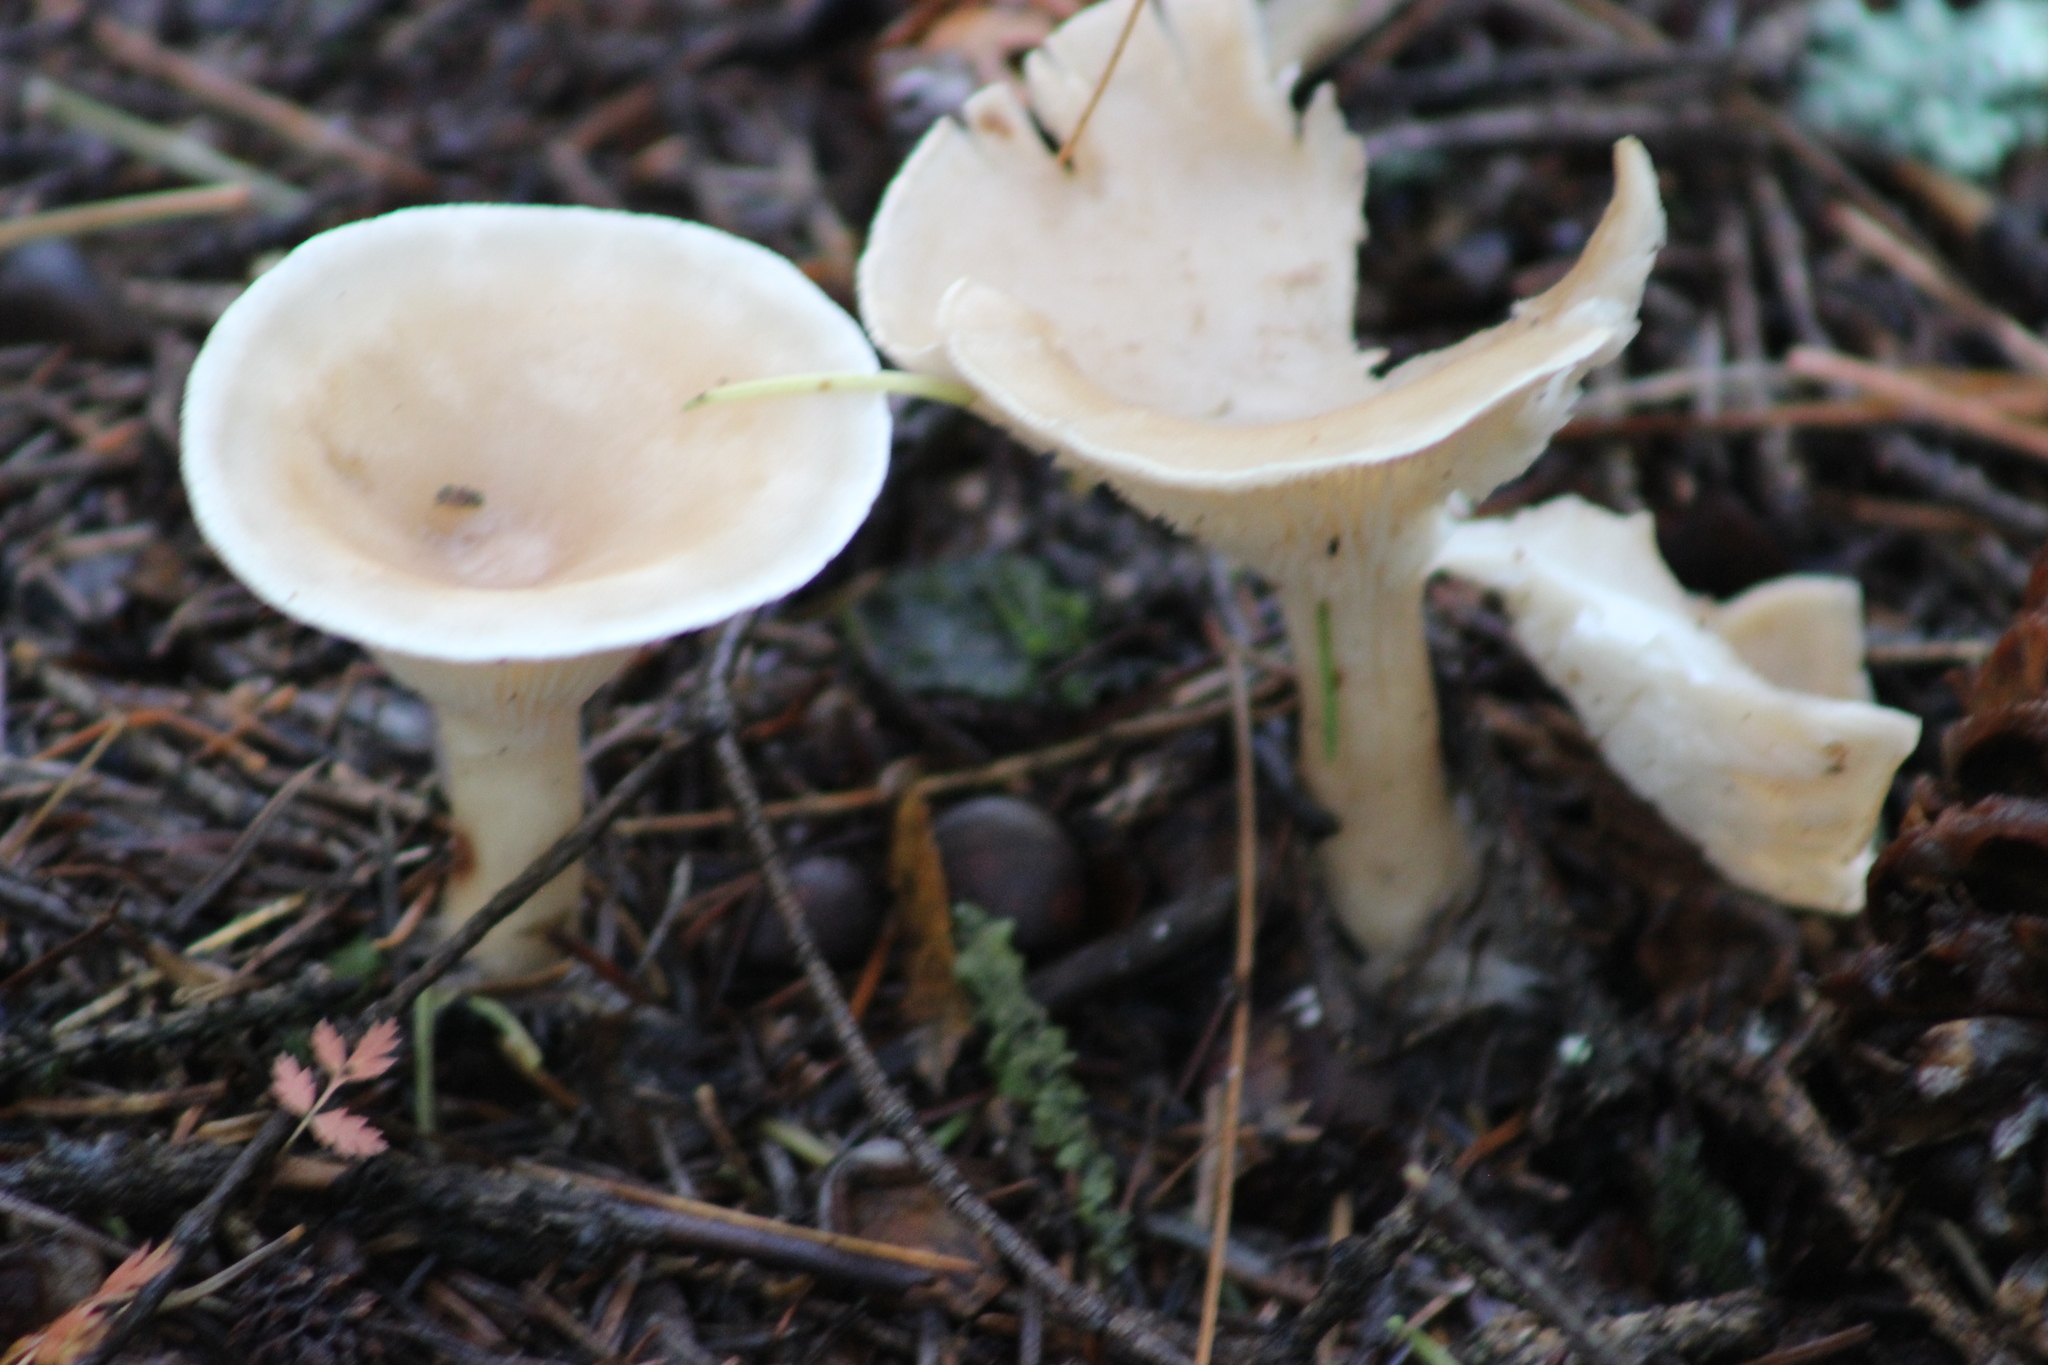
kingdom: Fungi
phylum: Basidiomycota
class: Agaricomycetes
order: Agaricales
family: Tricholomataceae
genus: Infundibulicybe
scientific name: Infundibulicybe gibba
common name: Common funnel
